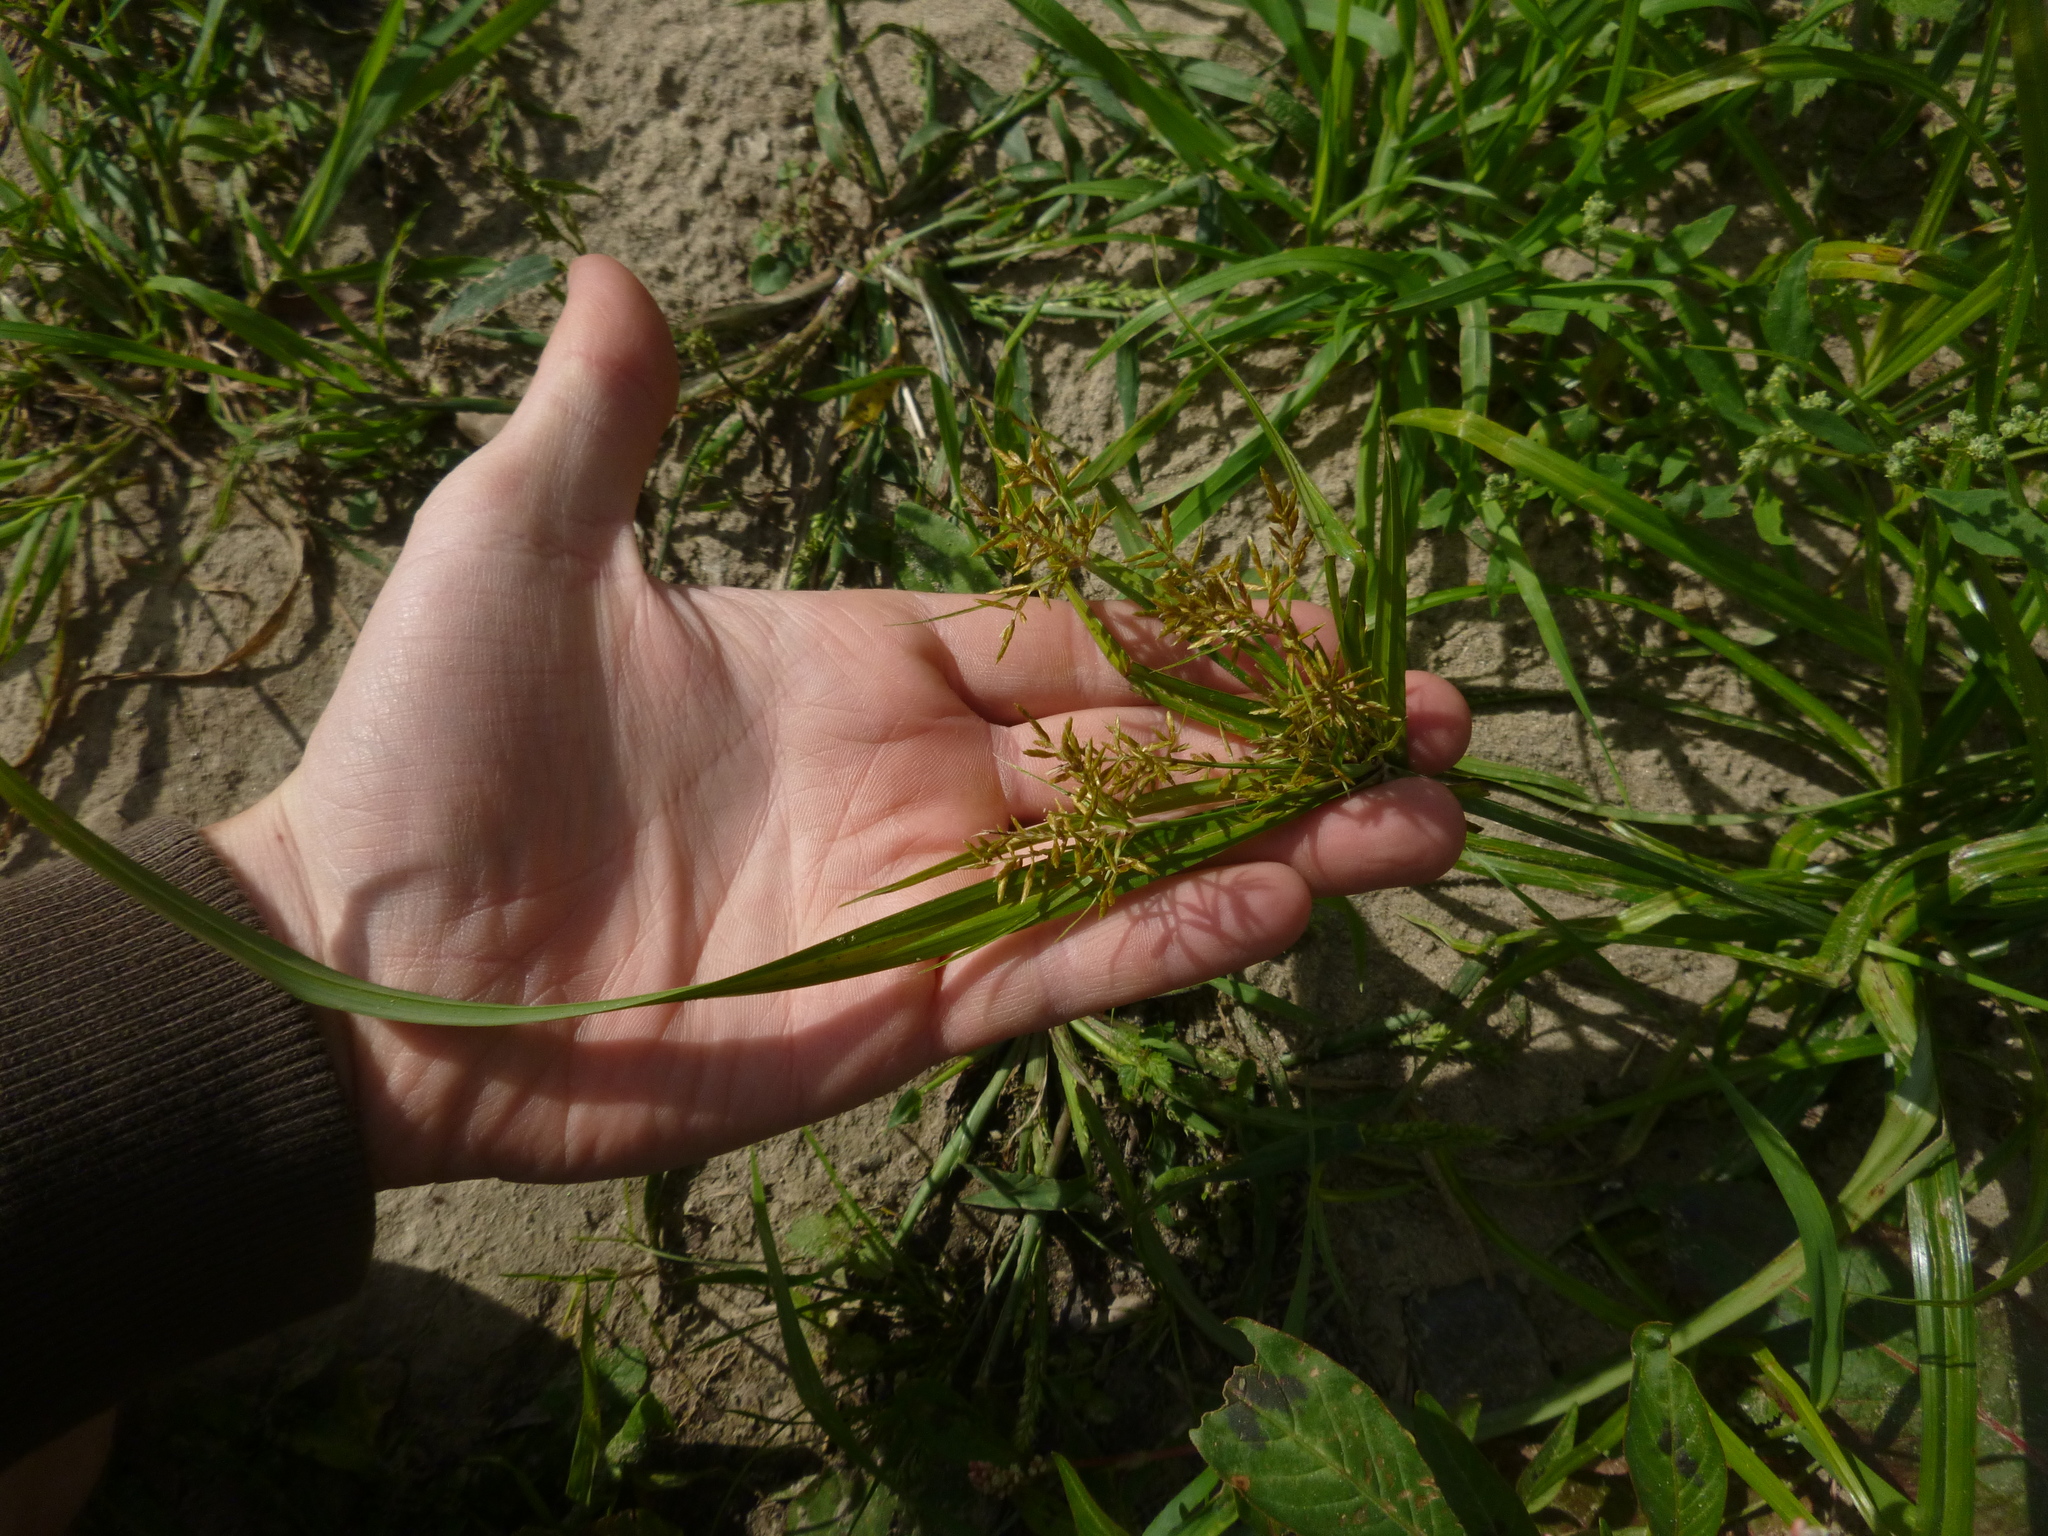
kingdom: Plantae
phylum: Tracheophyta
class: Liliopsida
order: Poales
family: Cyperaceae
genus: Cyperus
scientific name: Cyperus esculentus
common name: Yellow nutsedge
